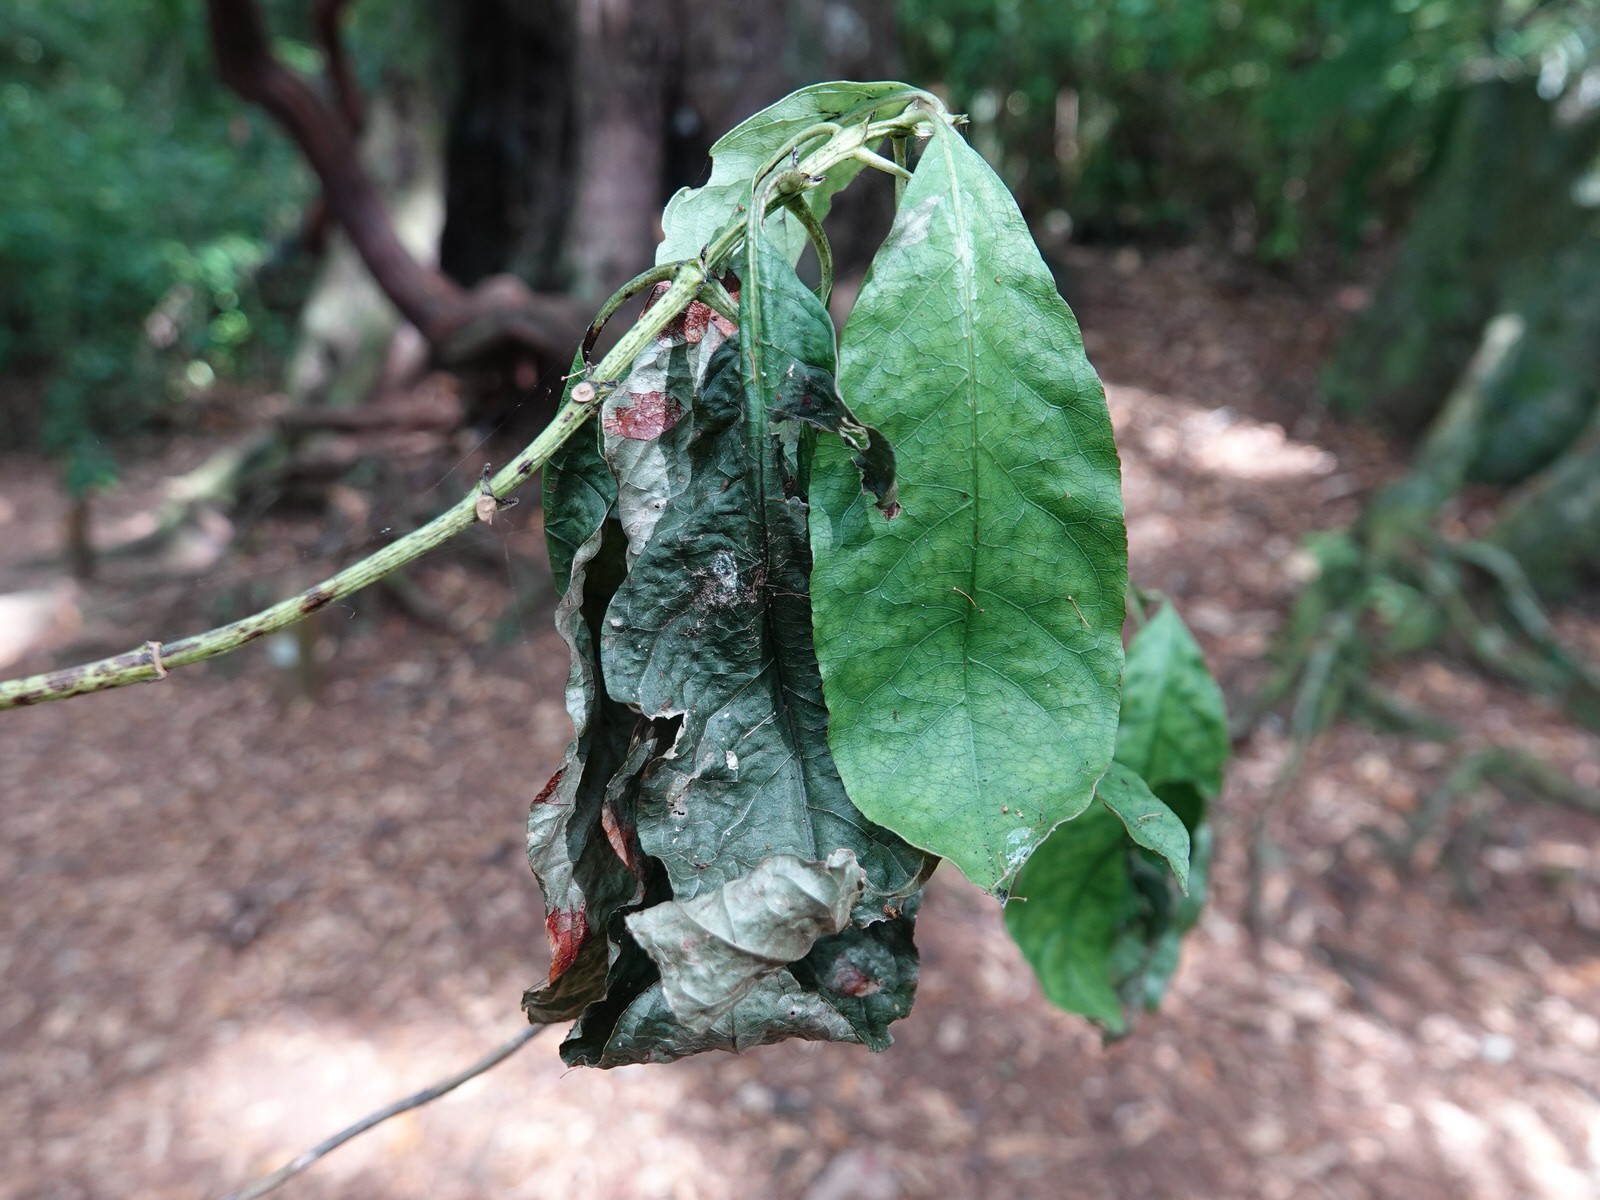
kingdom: Plantae
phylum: Tracheophyta
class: Magnoliopsida
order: Gentianales
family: Rubiaceae
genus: Coprosma
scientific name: Coprosma autumnalis
